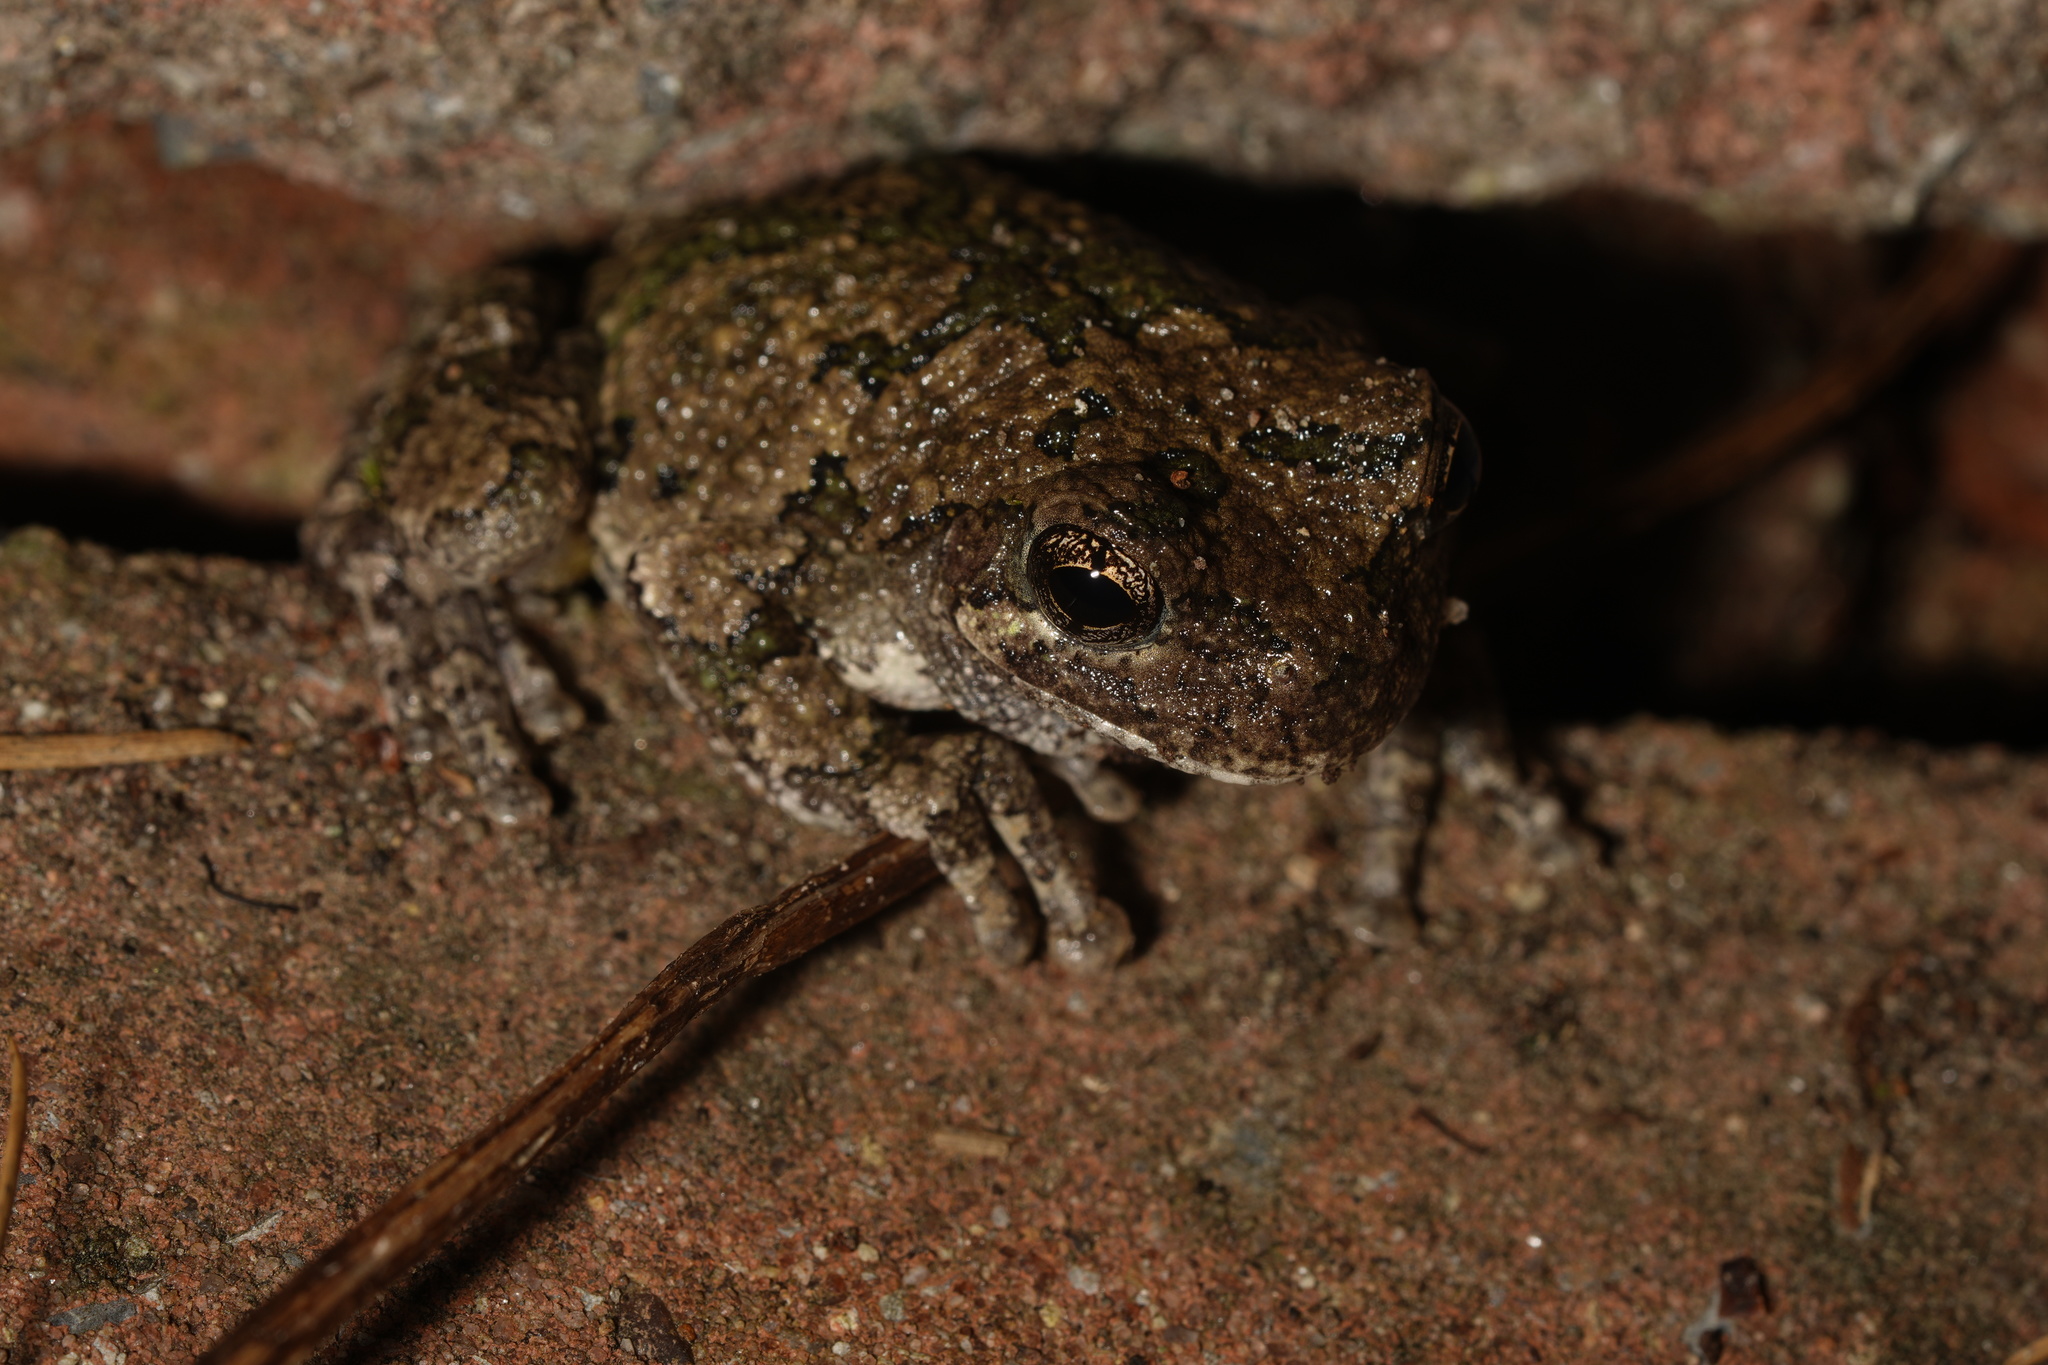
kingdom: Animalia
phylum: Chordata
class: Amphibia
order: Anura
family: Hylidae
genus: Dryophytes
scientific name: Dryophytes versicolor
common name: Gray treefrog
